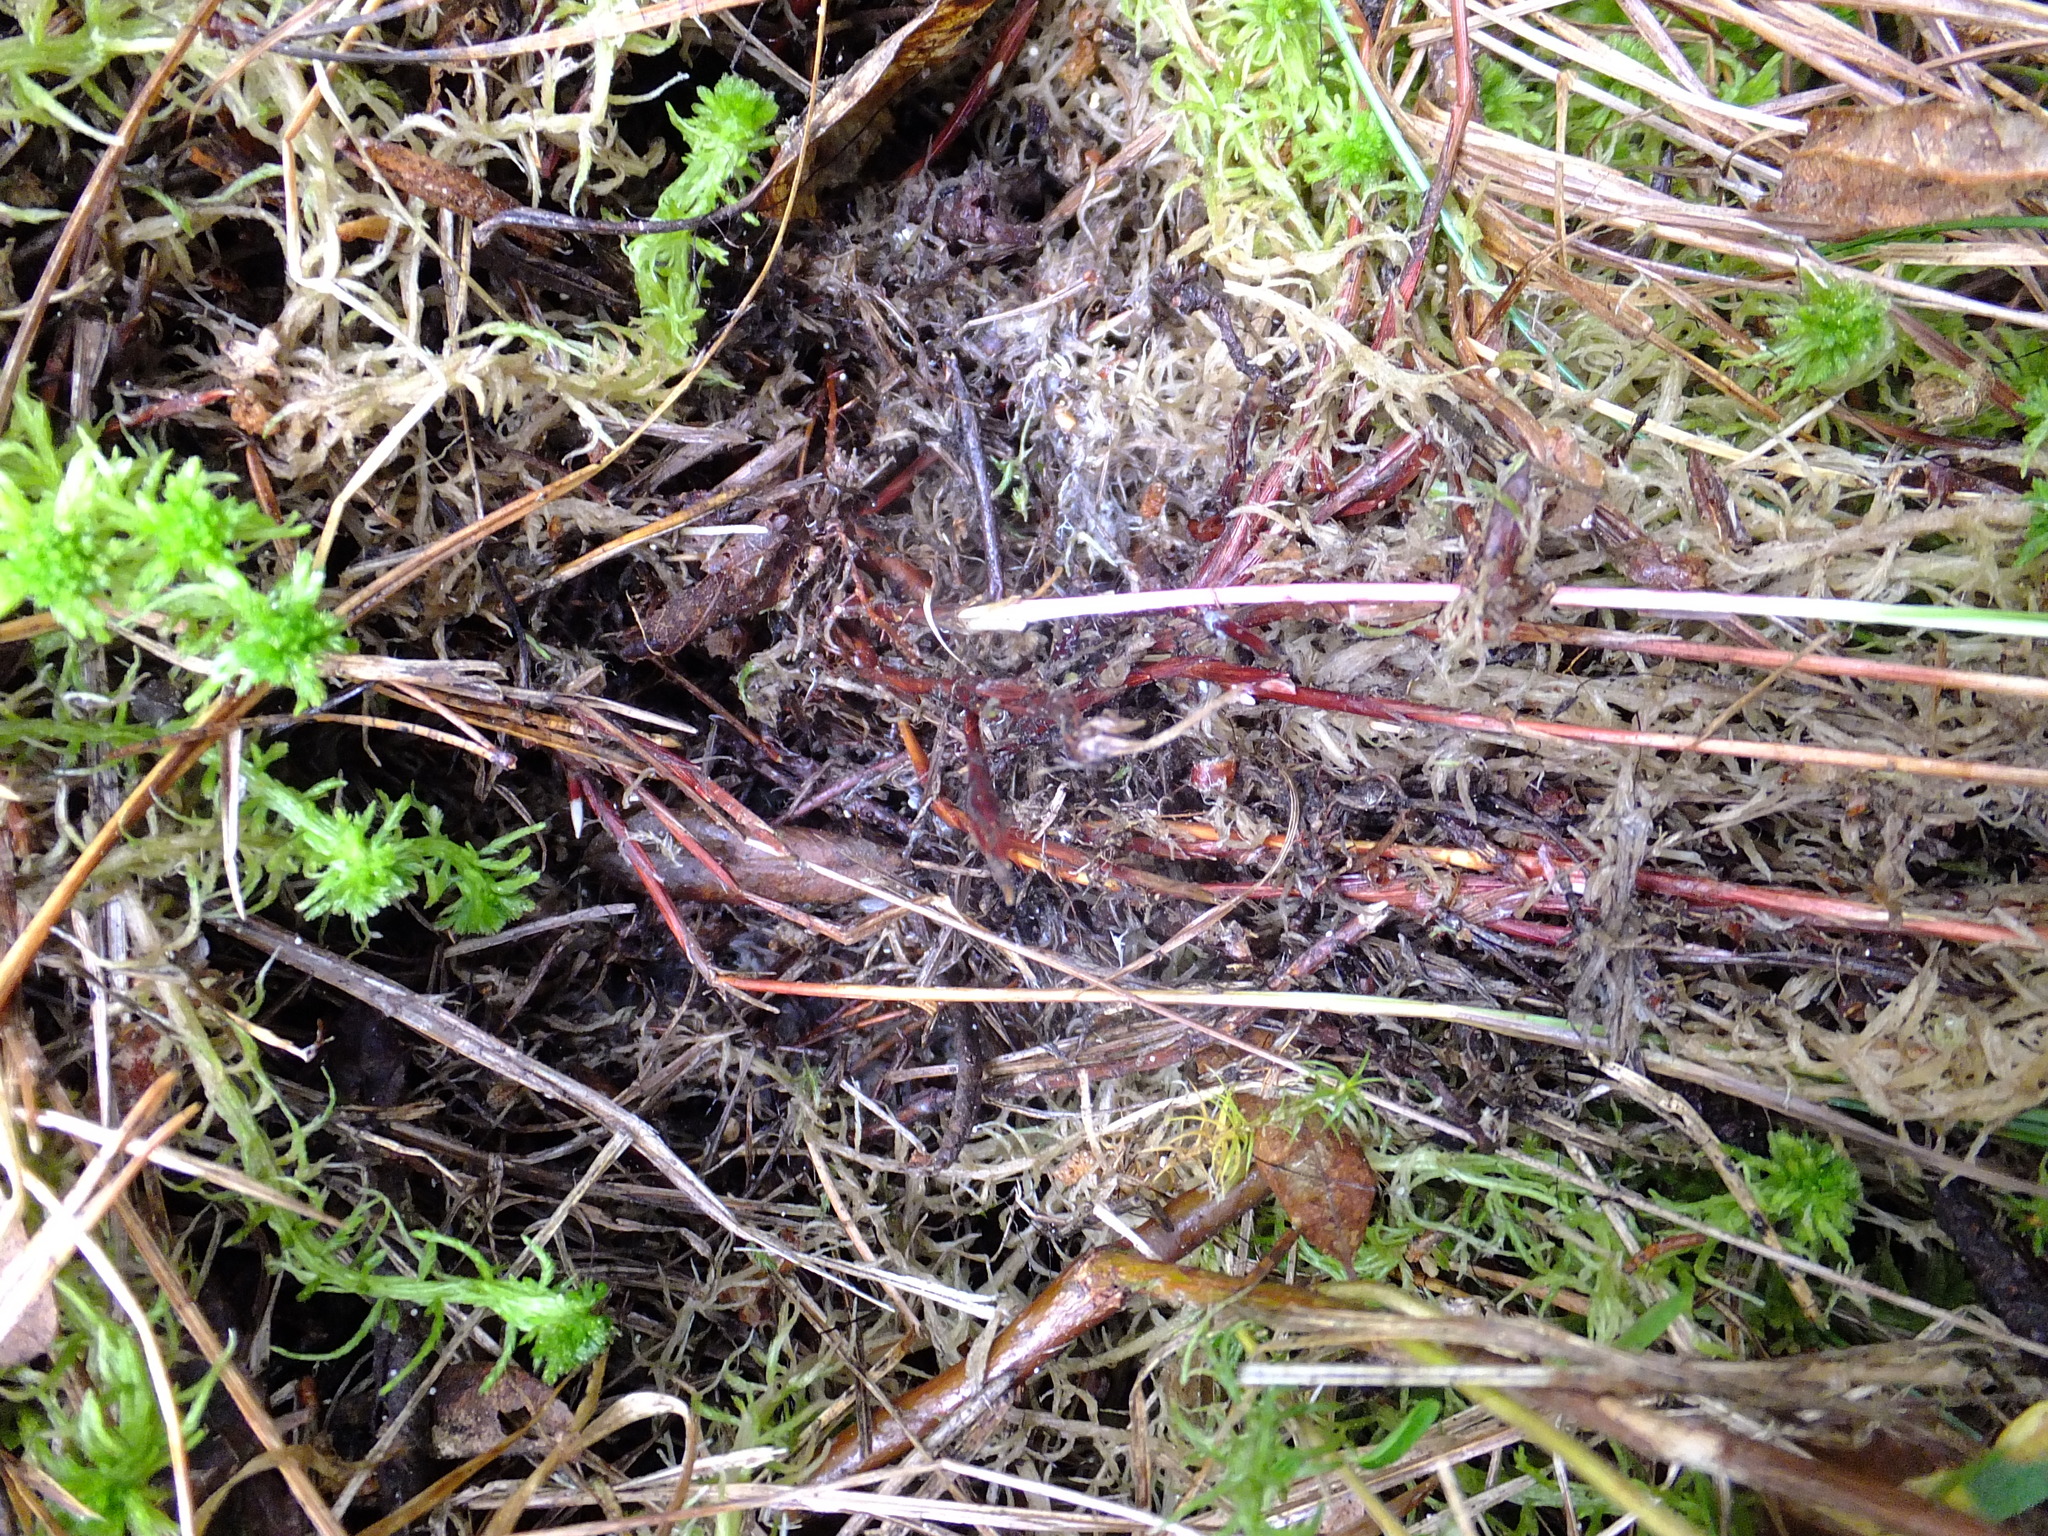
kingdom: Plantae
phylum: Tracheophyta
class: Liliopsida
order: Poales
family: Cyperaceae
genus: Carex
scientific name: Carex globularis
